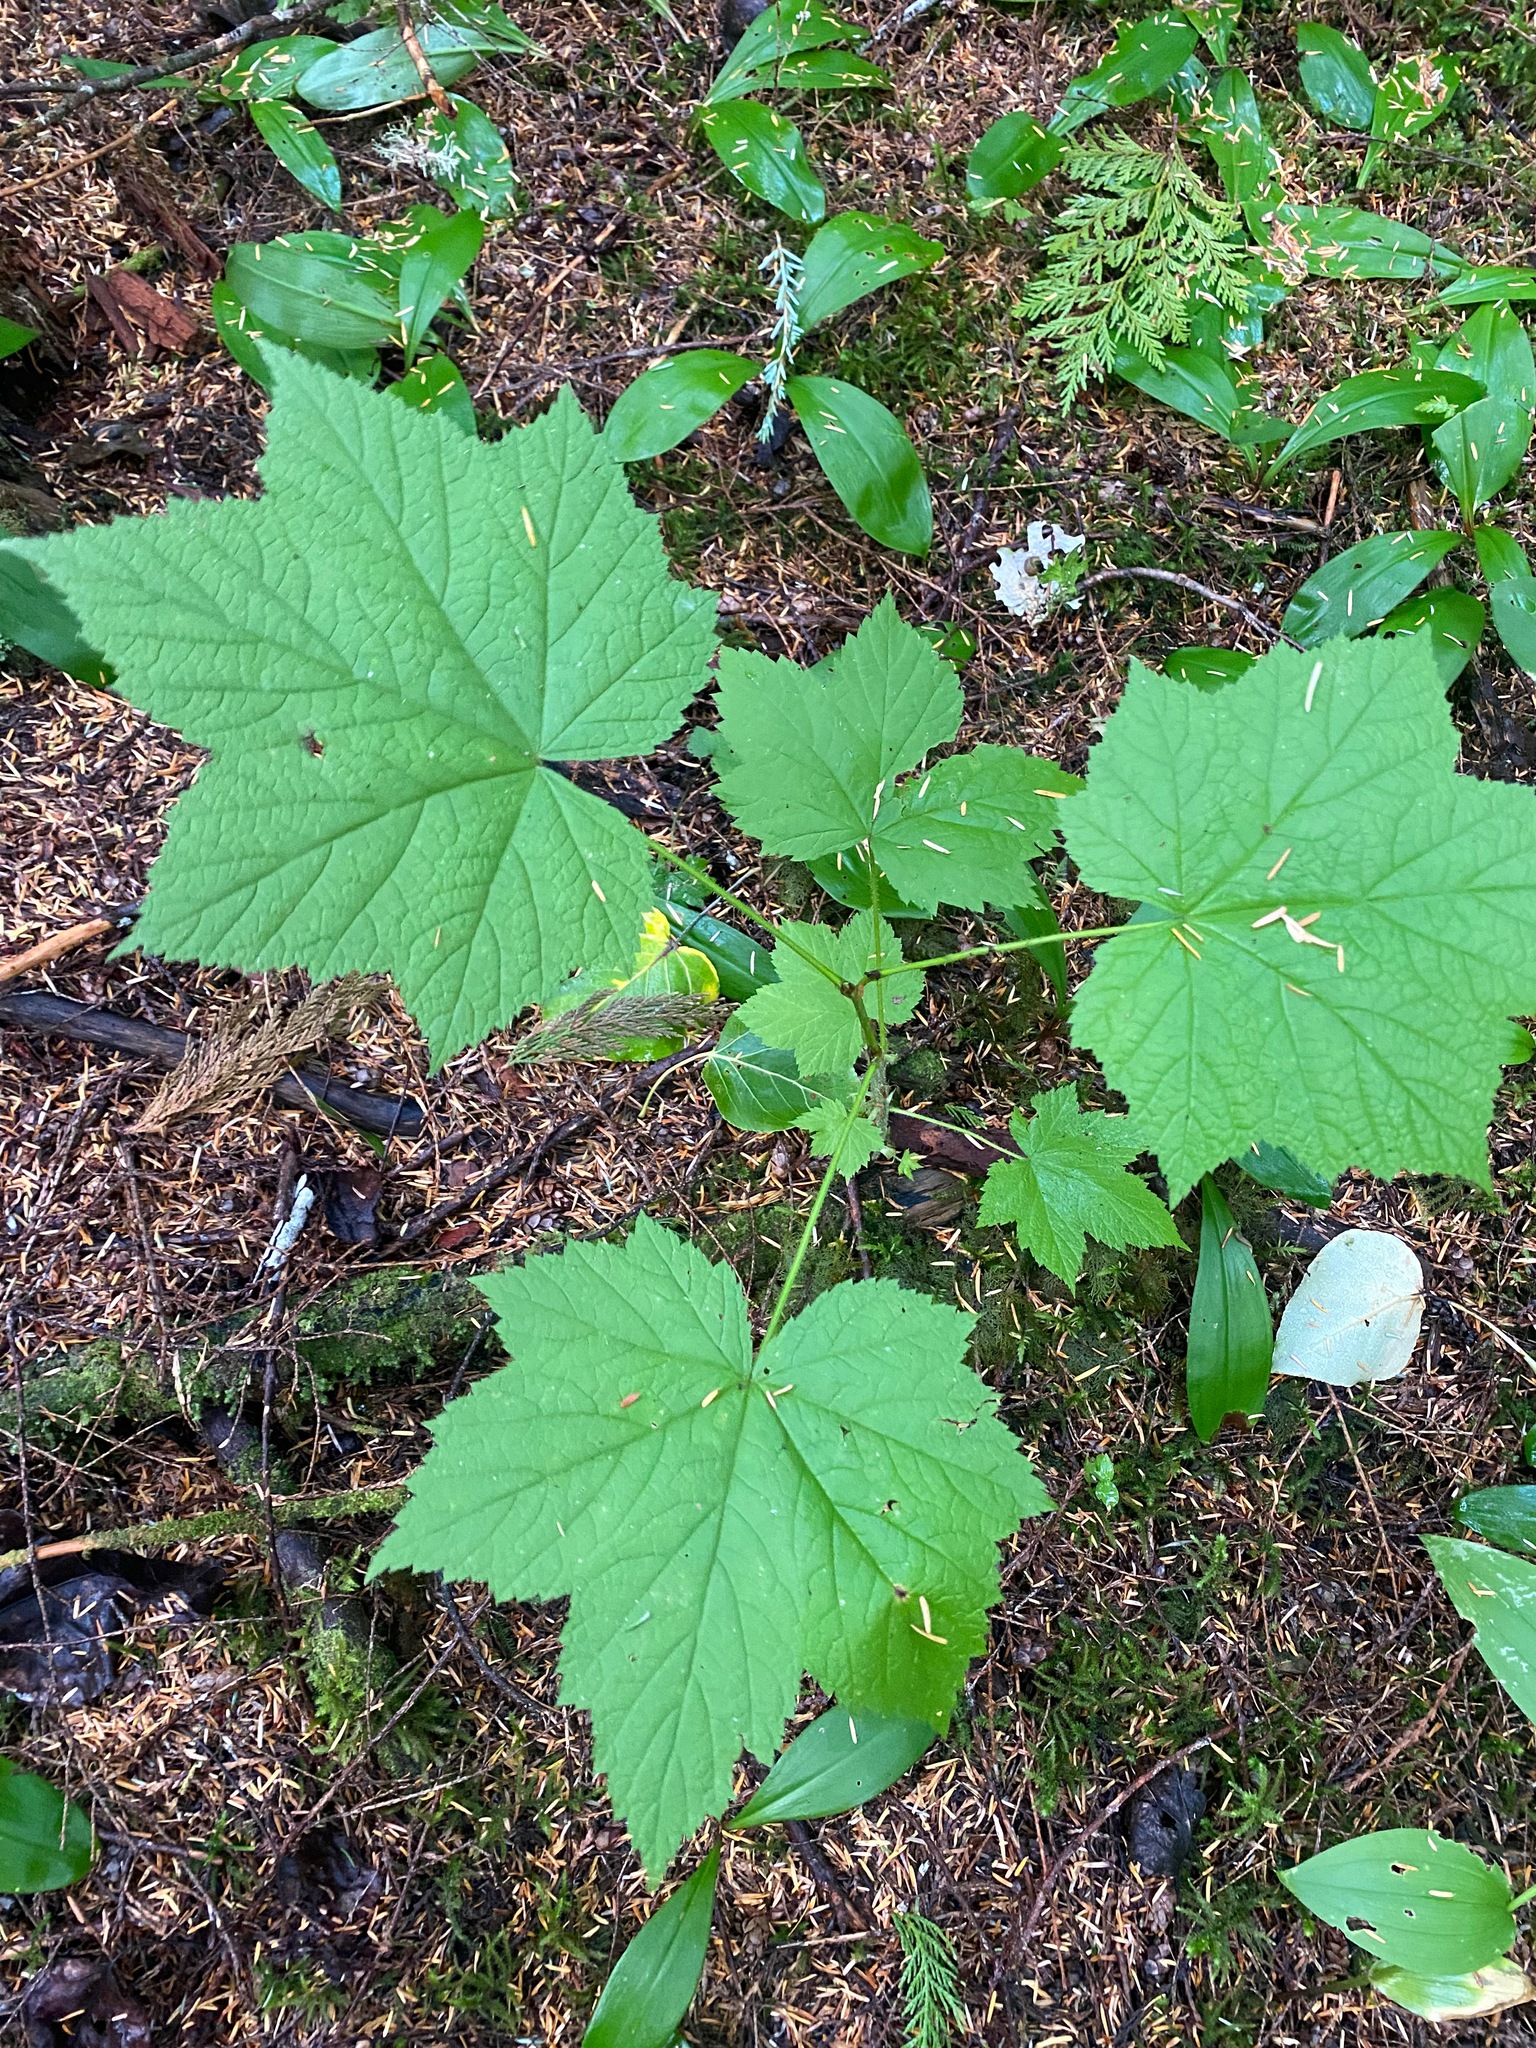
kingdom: Plantae
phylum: Tracheophyta
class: Magnoliopsida
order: Rosales
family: Rosaceae
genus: Rubus
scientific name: Rubus parviflorus
